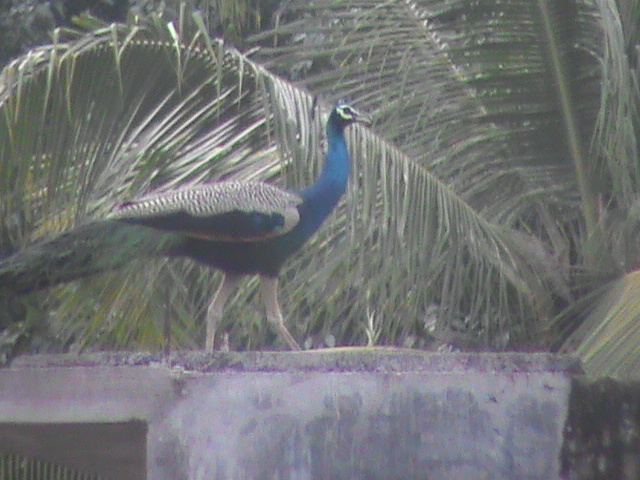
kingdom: Animalia
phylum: Chordata
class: Aves
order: Galliformes
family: Phasianidae
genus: Pavo
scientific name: Pavo cristatus
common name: Indian peafowl
